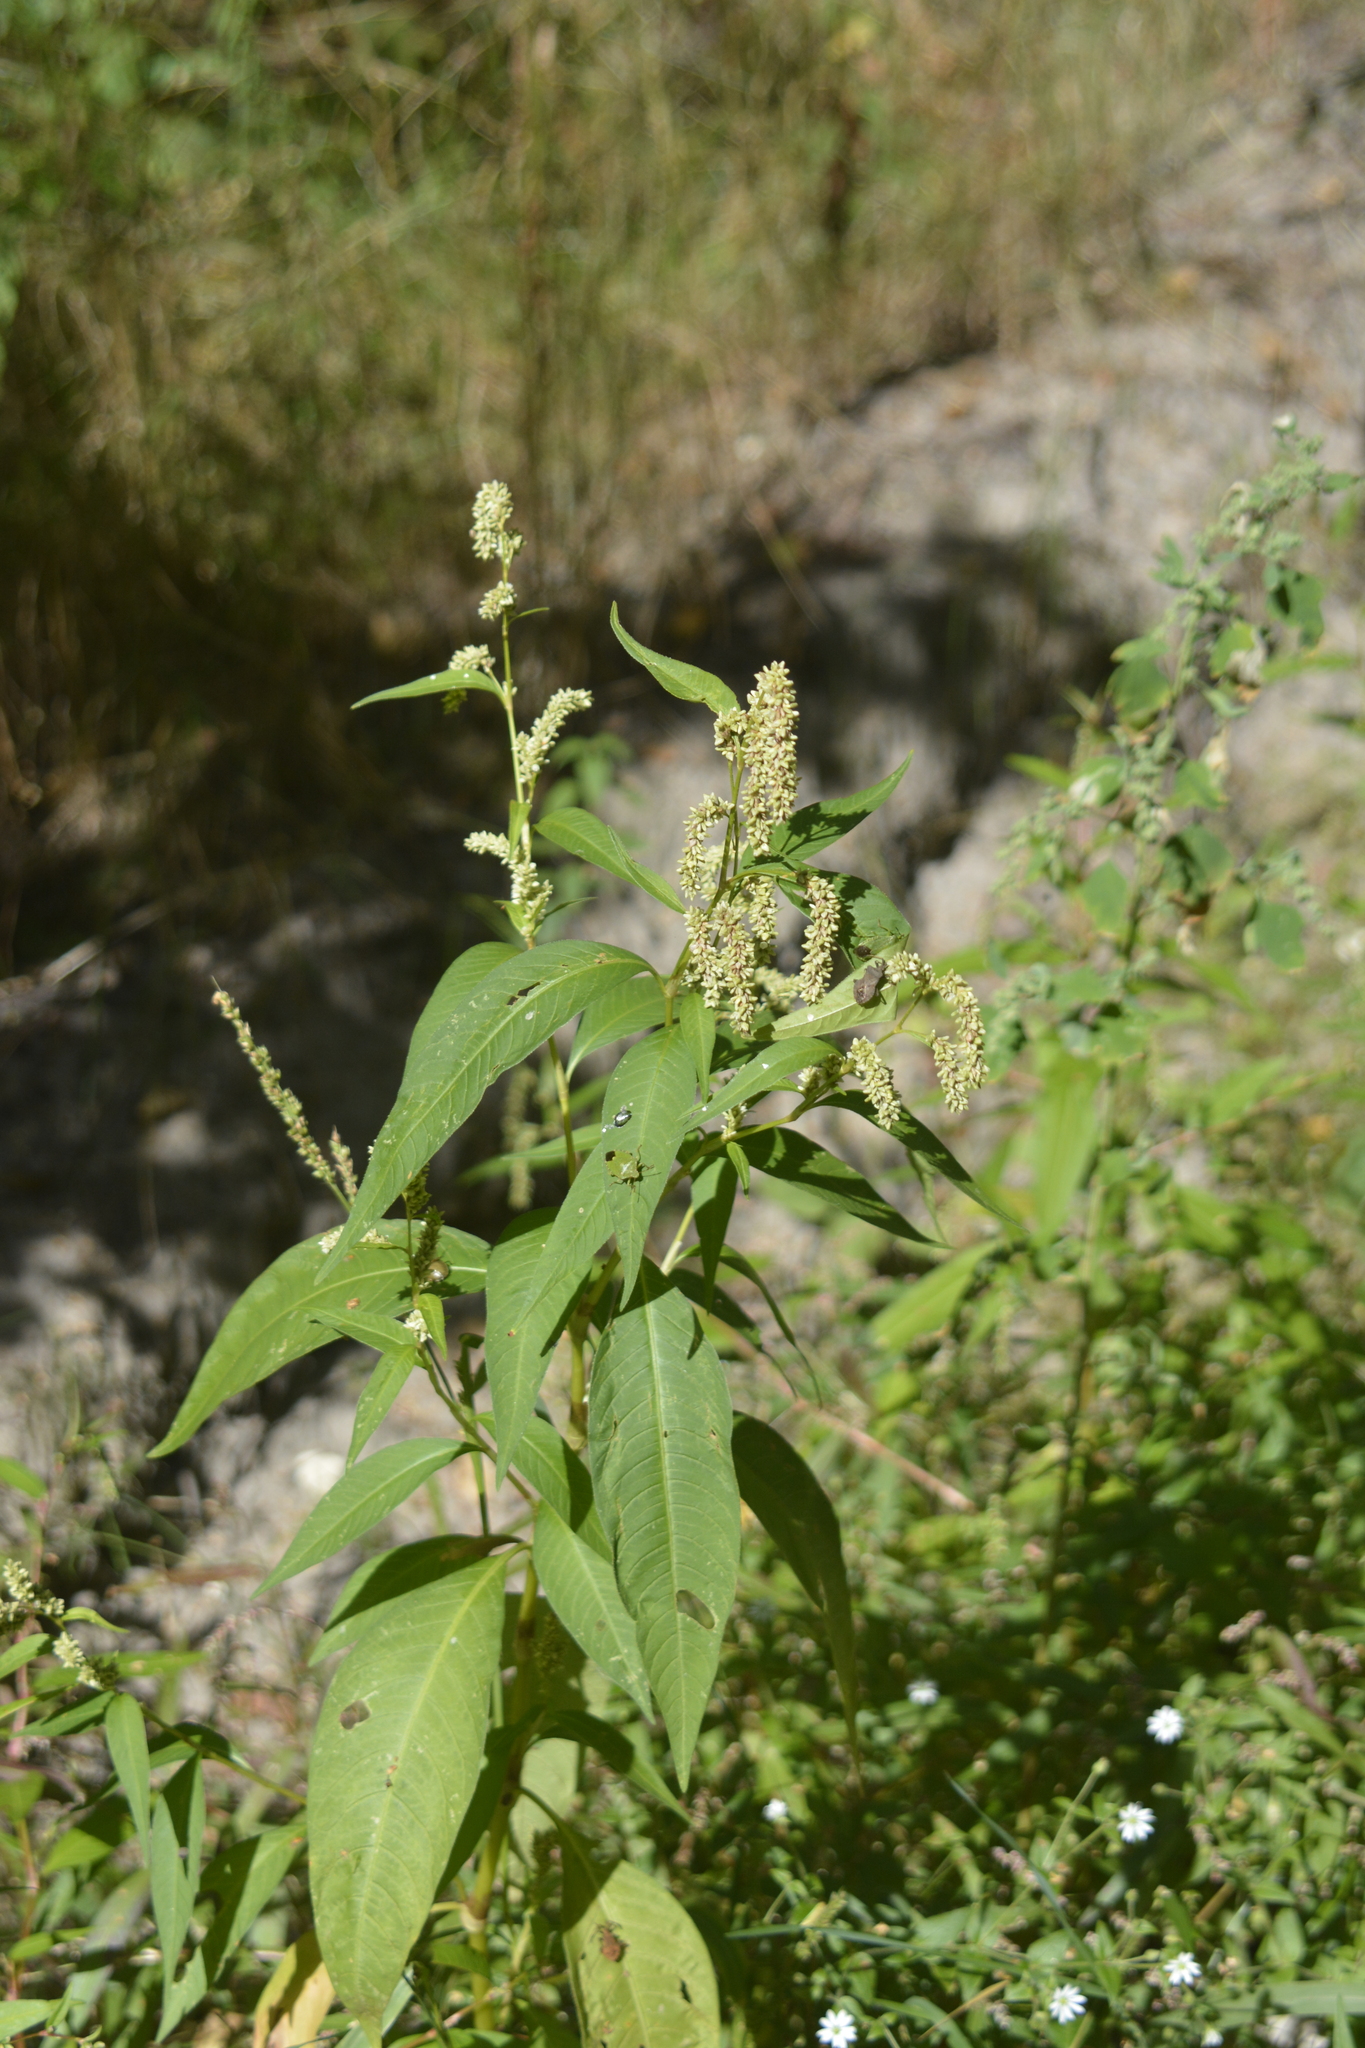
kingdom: Plantae
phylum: Tracheophyta
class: Magnoliopsida
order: Caryophyllales
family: Polygonaceae
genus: Persicaria
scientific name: Persicaria lapathifolia
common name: Curlytop knotweed
